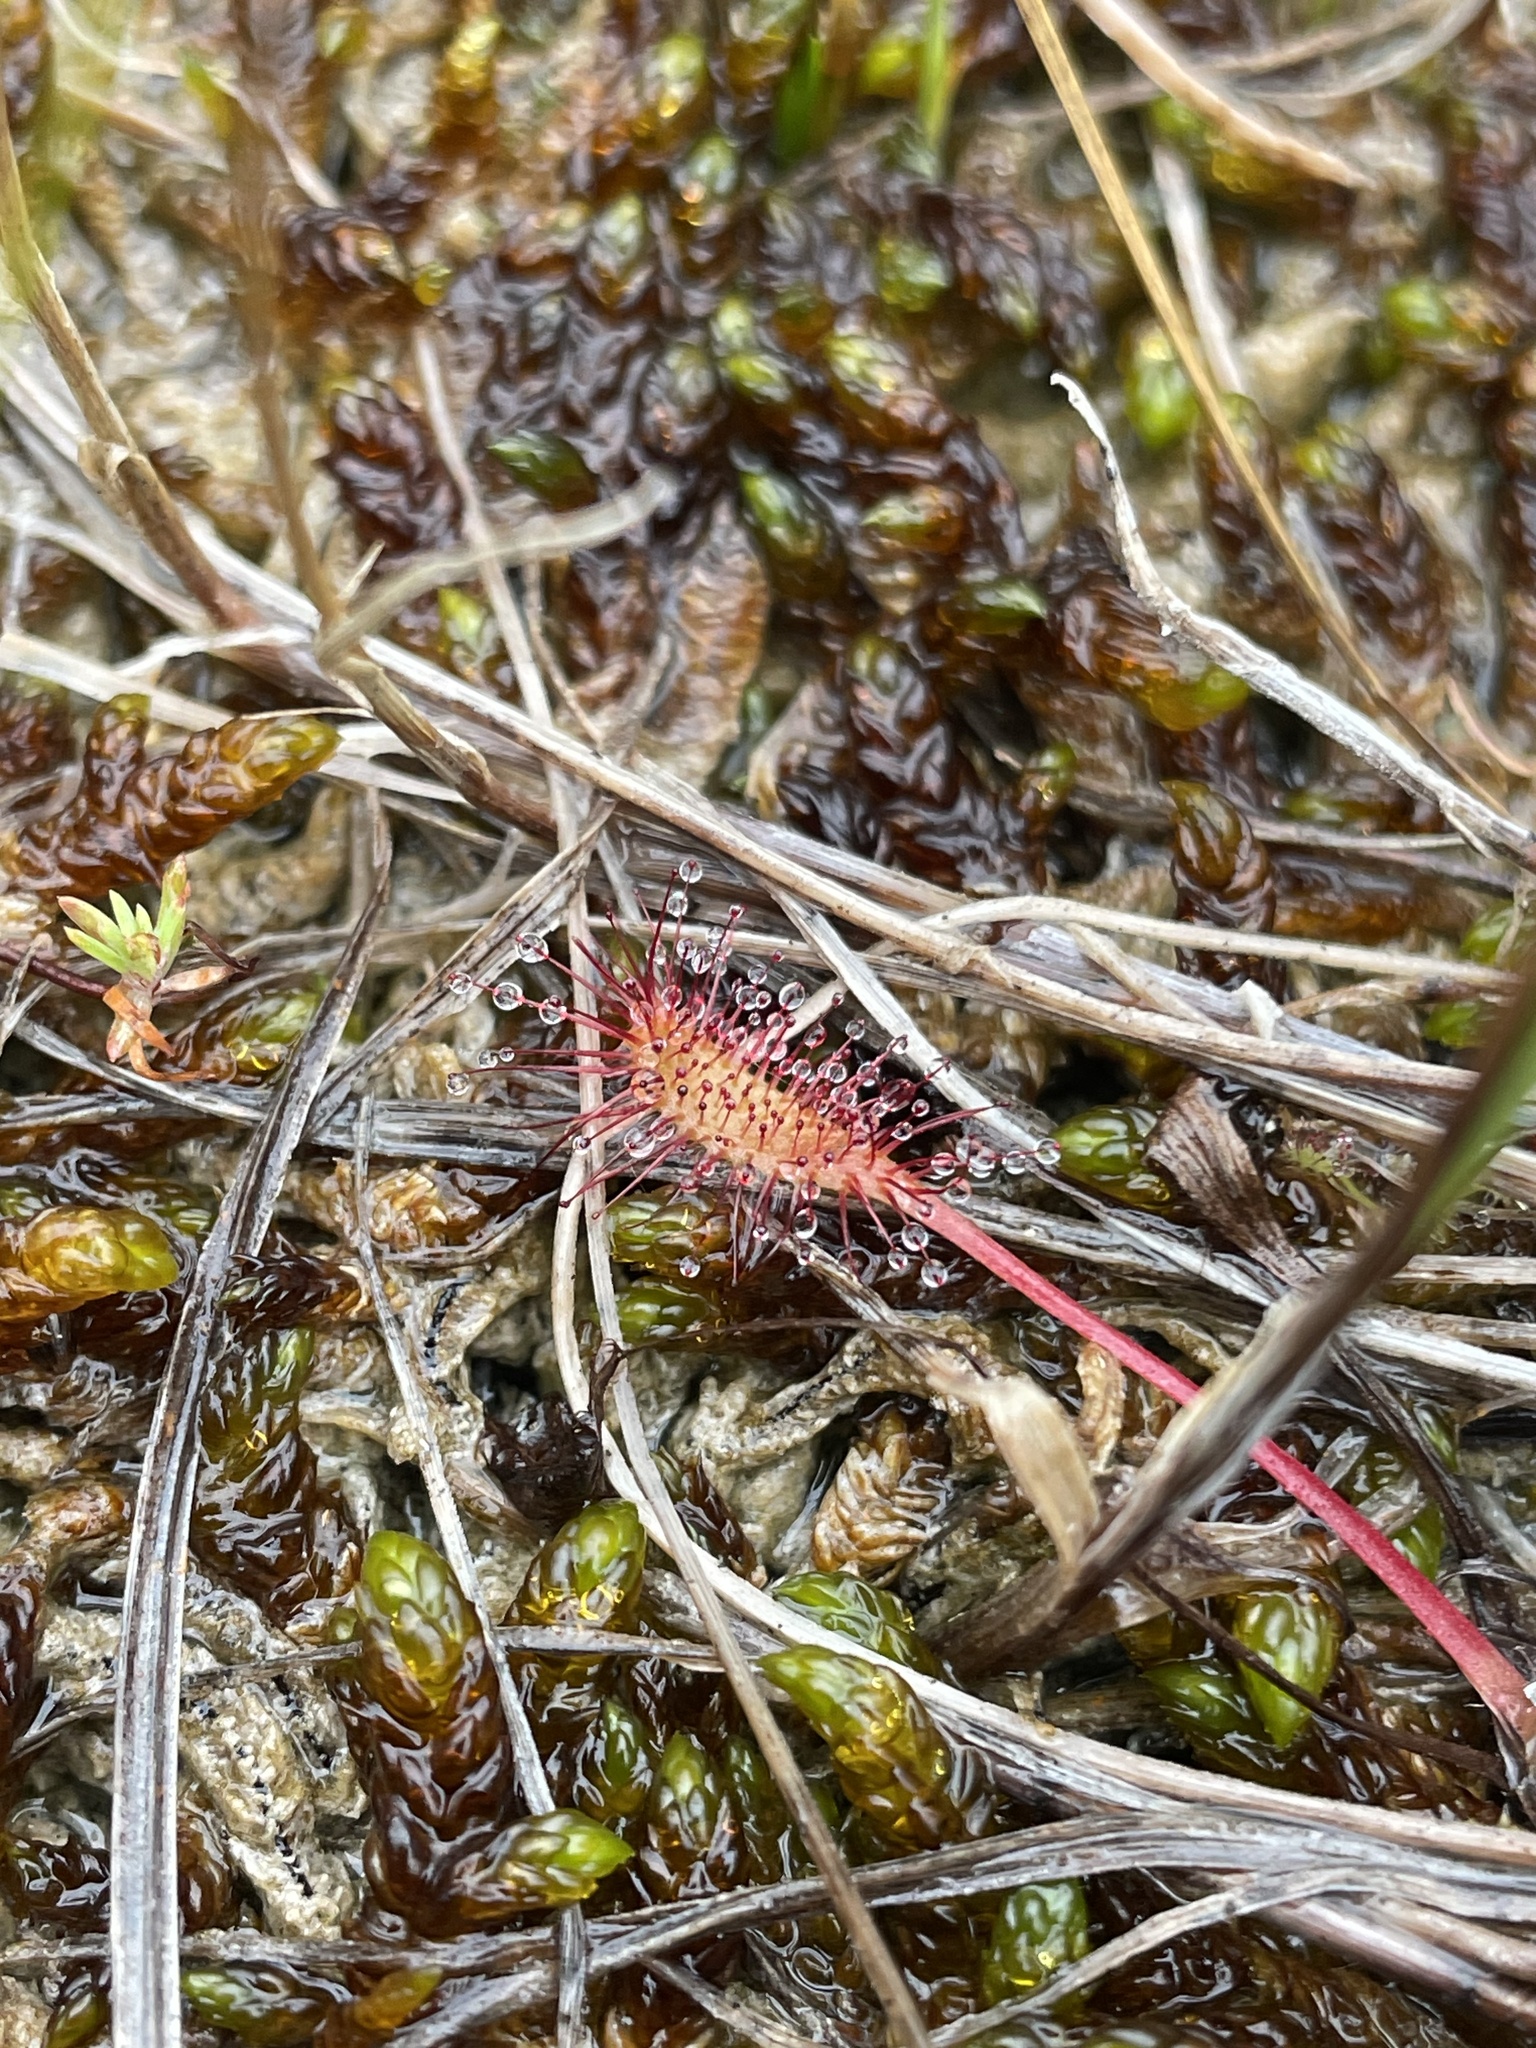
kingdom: Plantae
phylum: Tracheophyta
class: Magnoliopsida
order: Caryophyllales
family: Droseraceae
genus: Drosera
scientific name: Drosera anglica
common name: Great sundew
